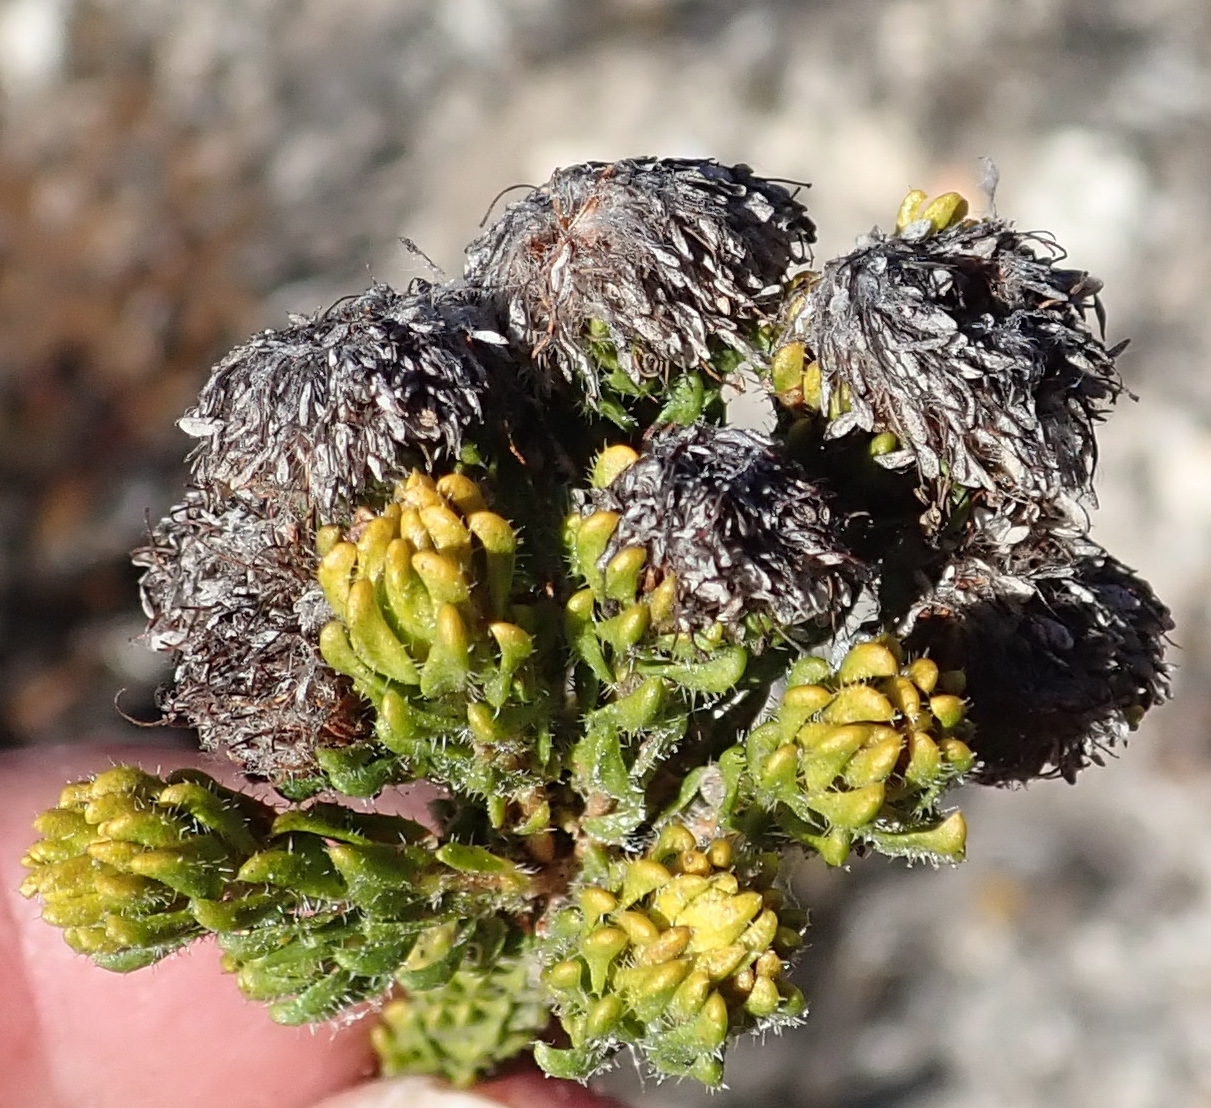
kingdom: Plantae
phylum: Tracheophyta
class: Magnoliopsida
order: Sapindales
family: Rutaceae
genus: Agathosma
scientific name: Agathosma eriantha
